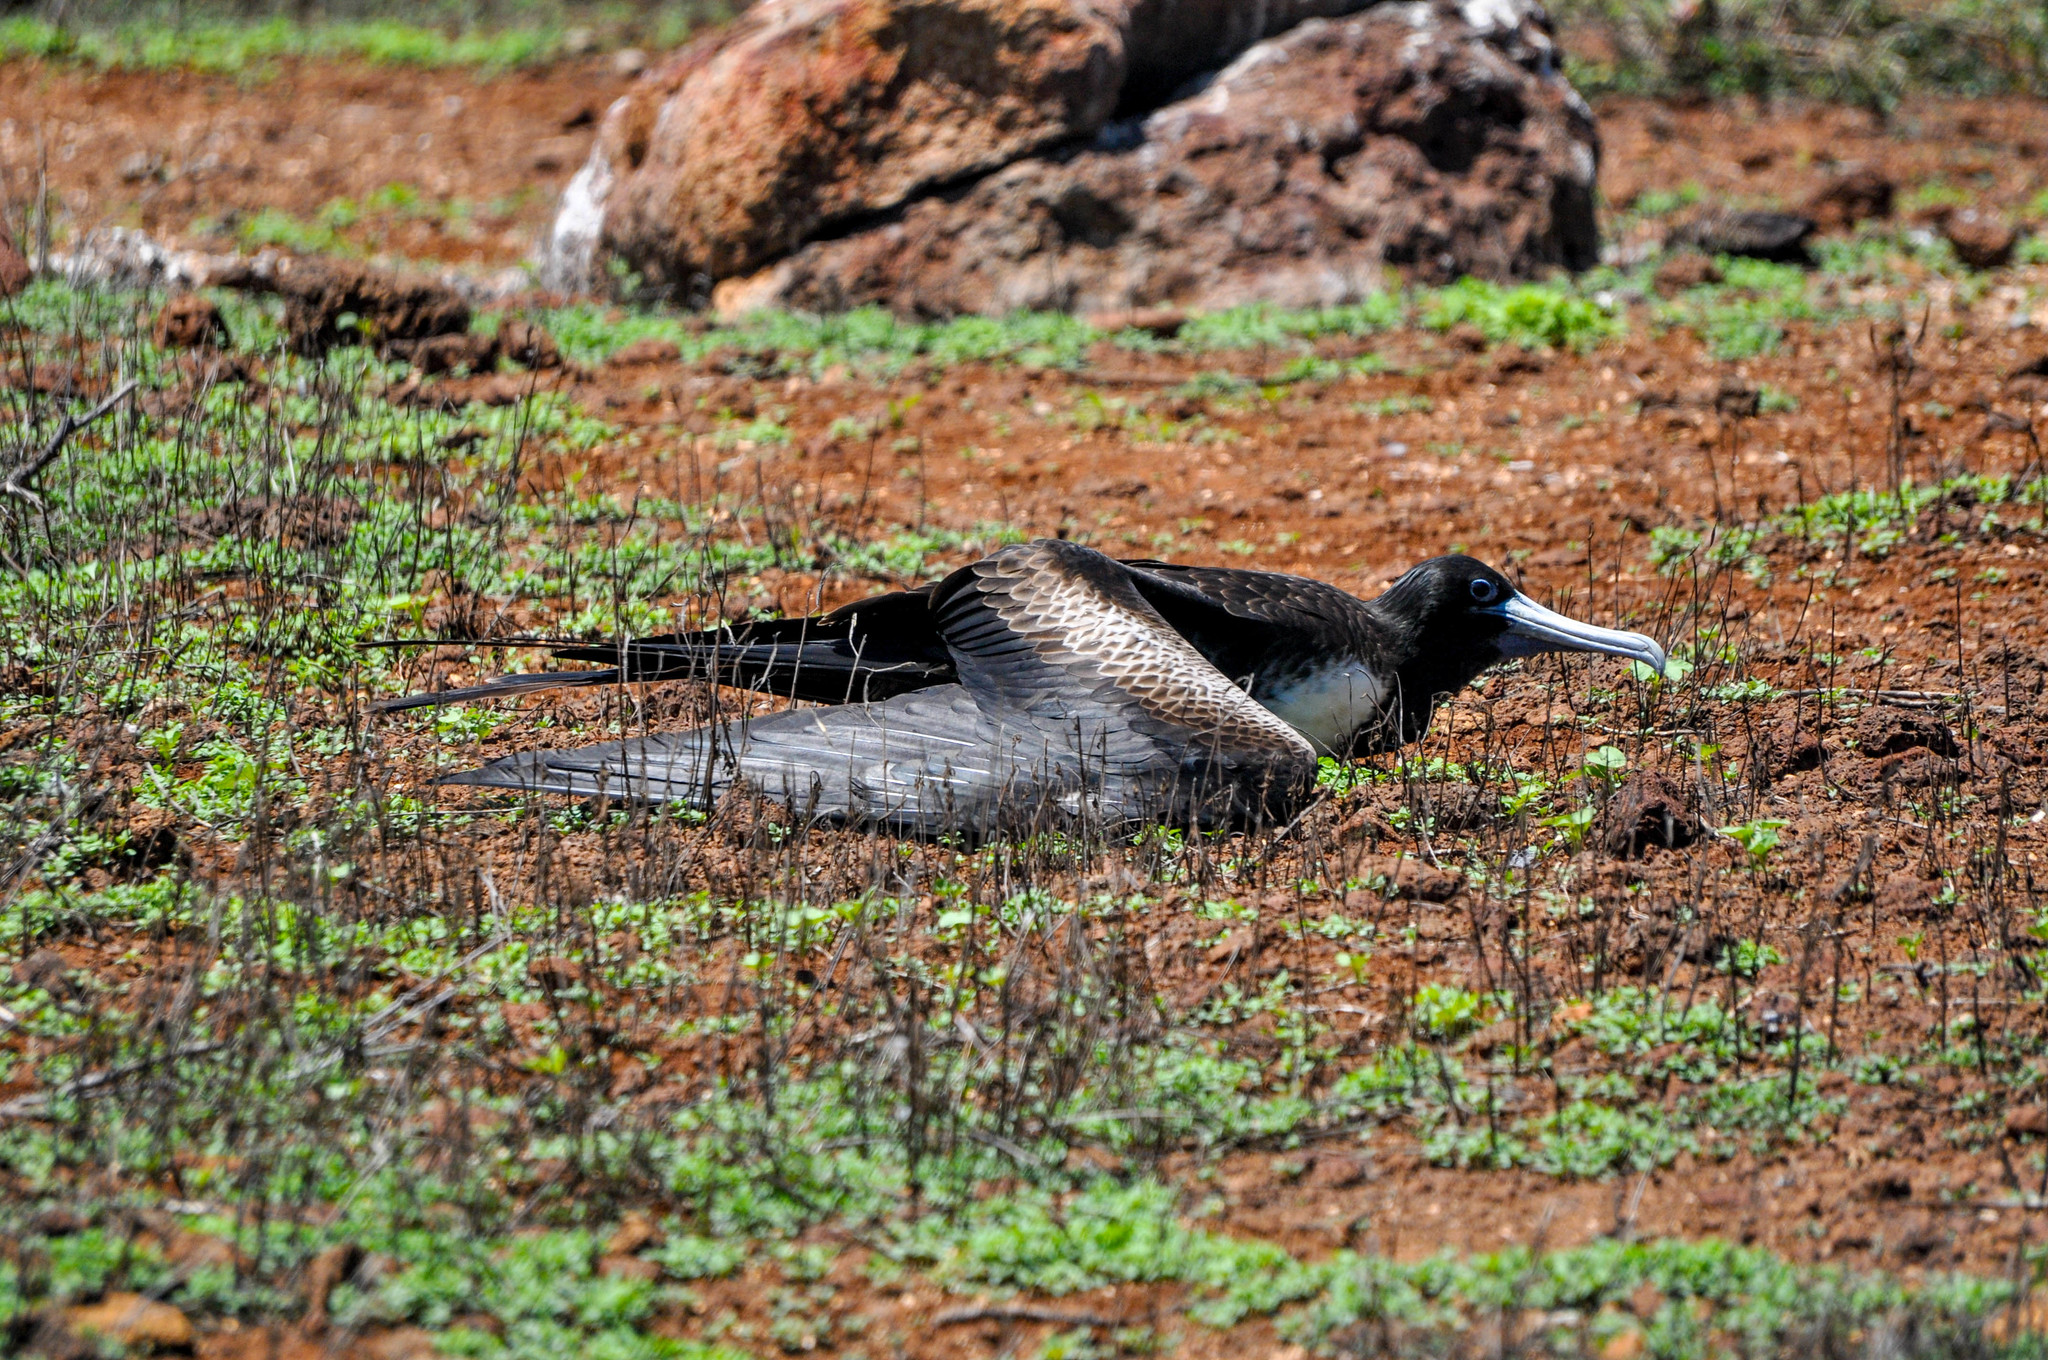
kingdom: Animalia
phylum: Chordata
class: Aves
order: Suliformes
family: Fregatidae
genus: Fregata
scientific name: Fregata magnificens
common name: Magnificent frigatebird
